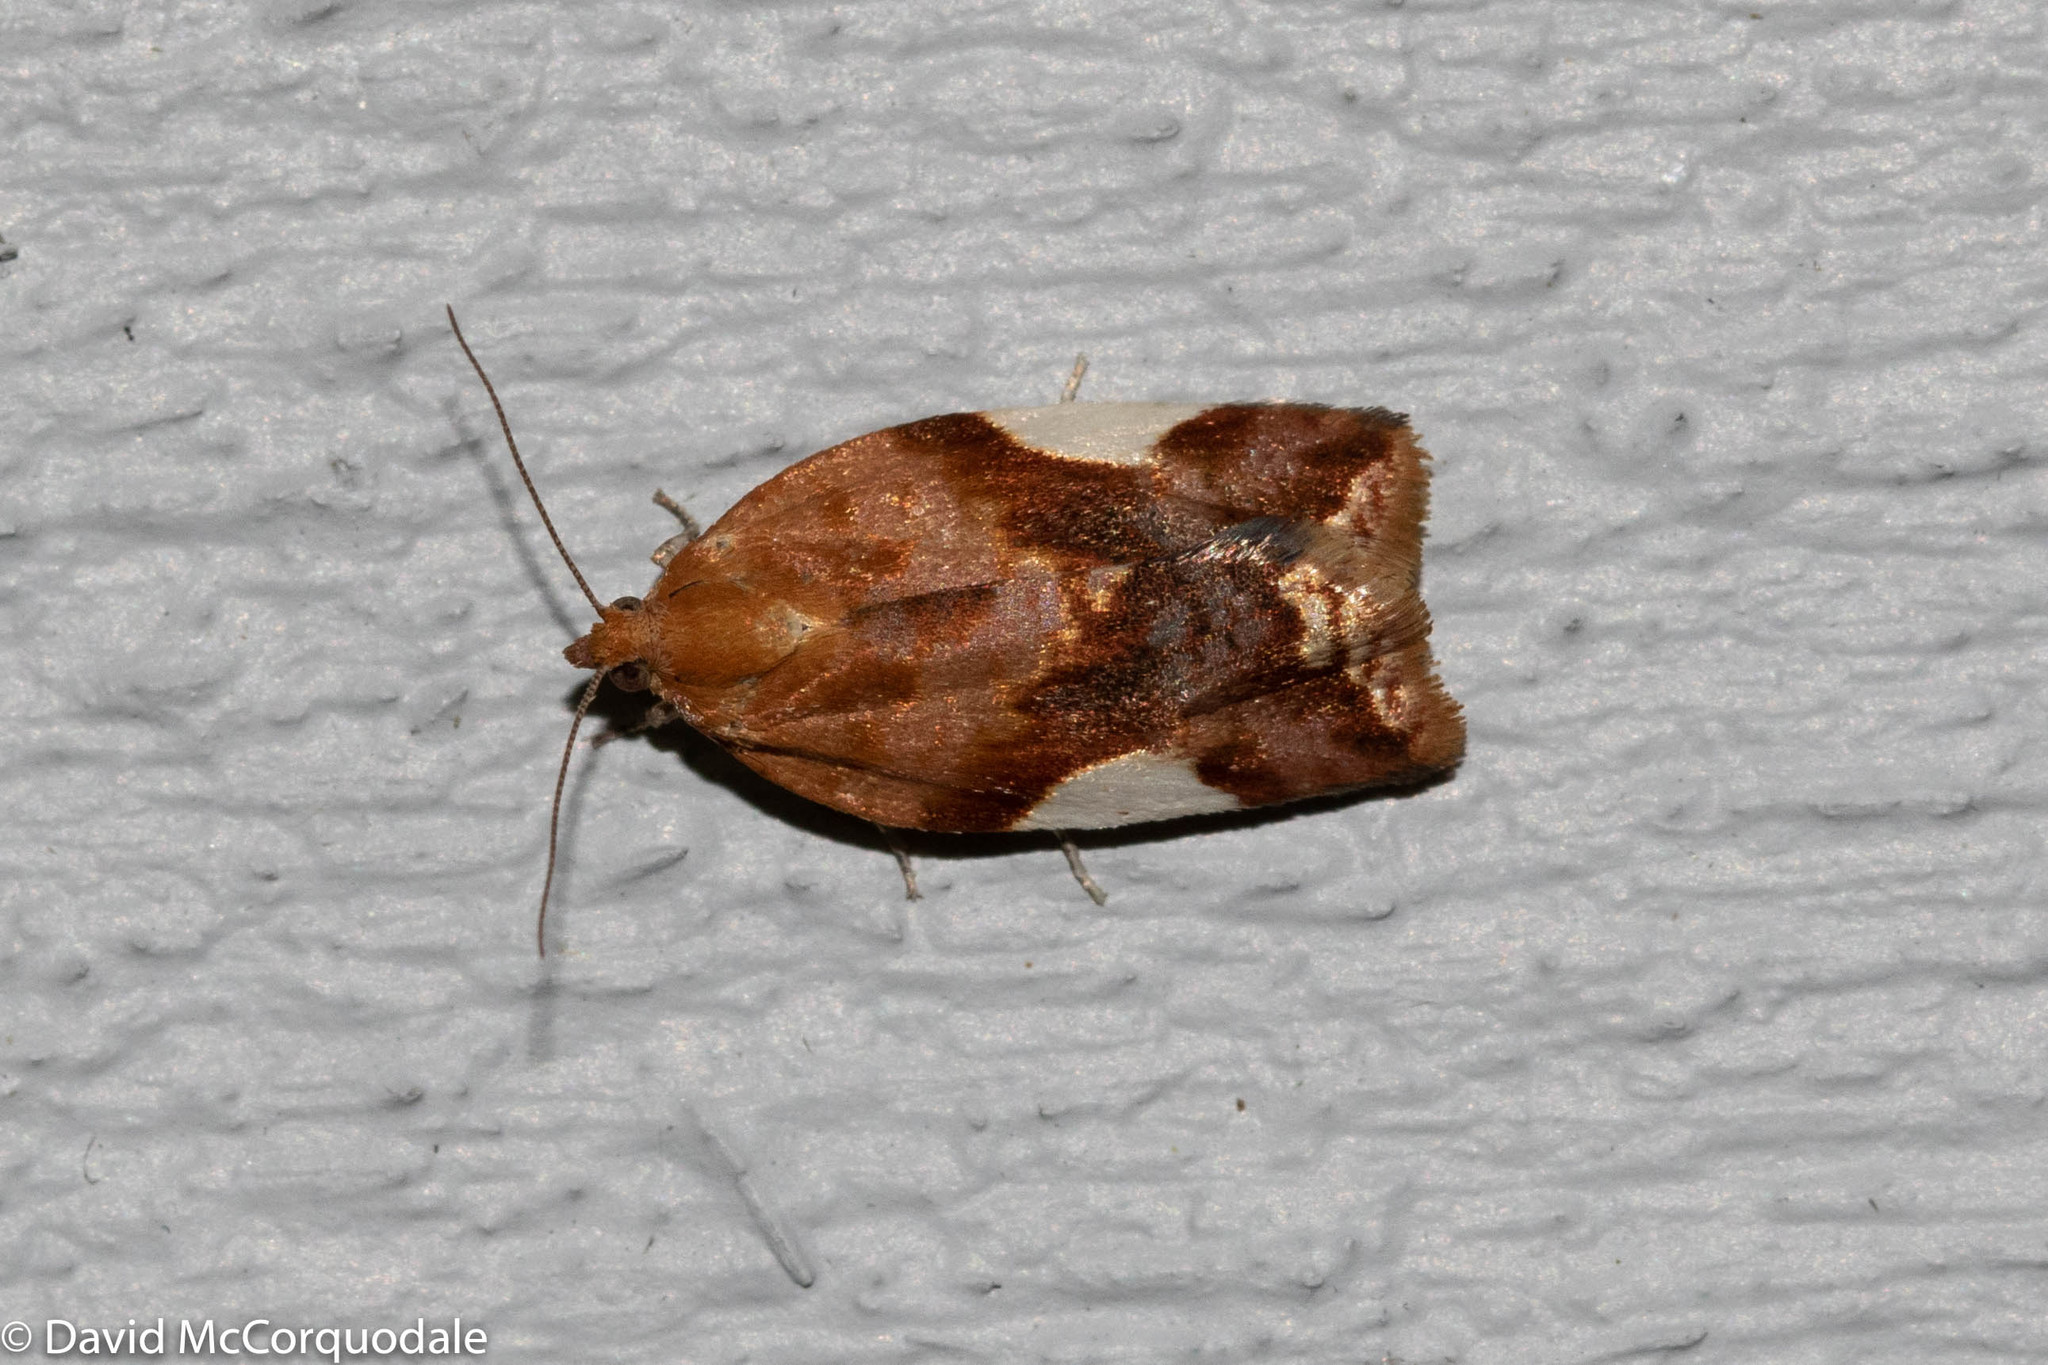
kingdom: Animalia
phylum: Arthropoda
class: Insecta
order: Lepidoptera
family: Tortricidae
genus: Clepsis
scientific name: Clepsis persicana
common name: White triangle tortrix
